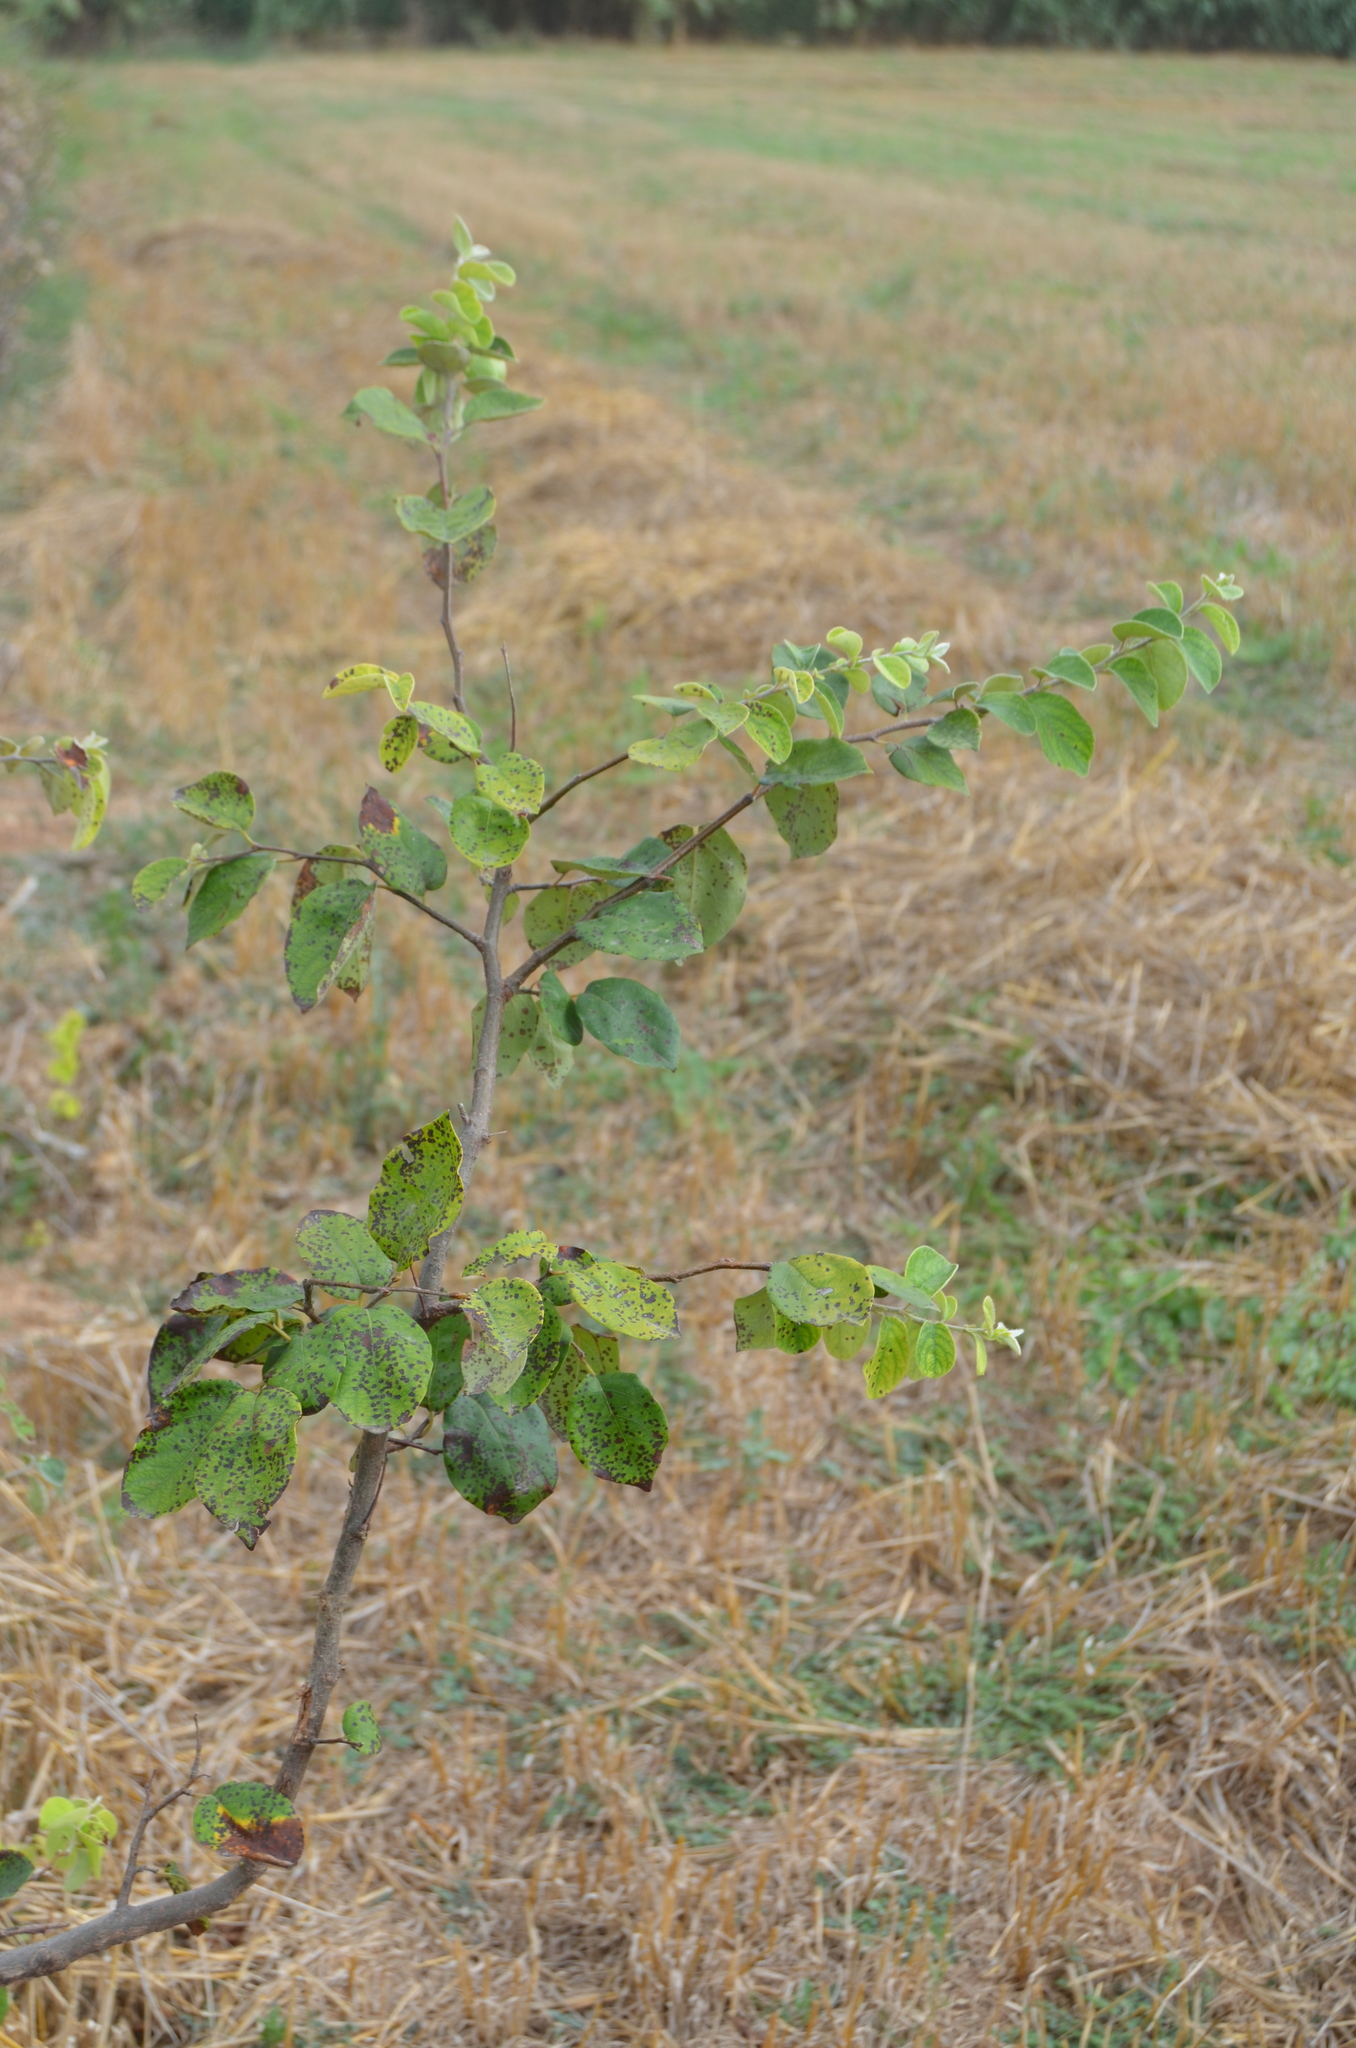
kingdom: Plantae
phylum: Tracheophyta
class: Magnoliopsida
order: Rosales
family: Rosaceae
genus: Cydonia
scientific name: Cydonia oblonga
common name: Quince
